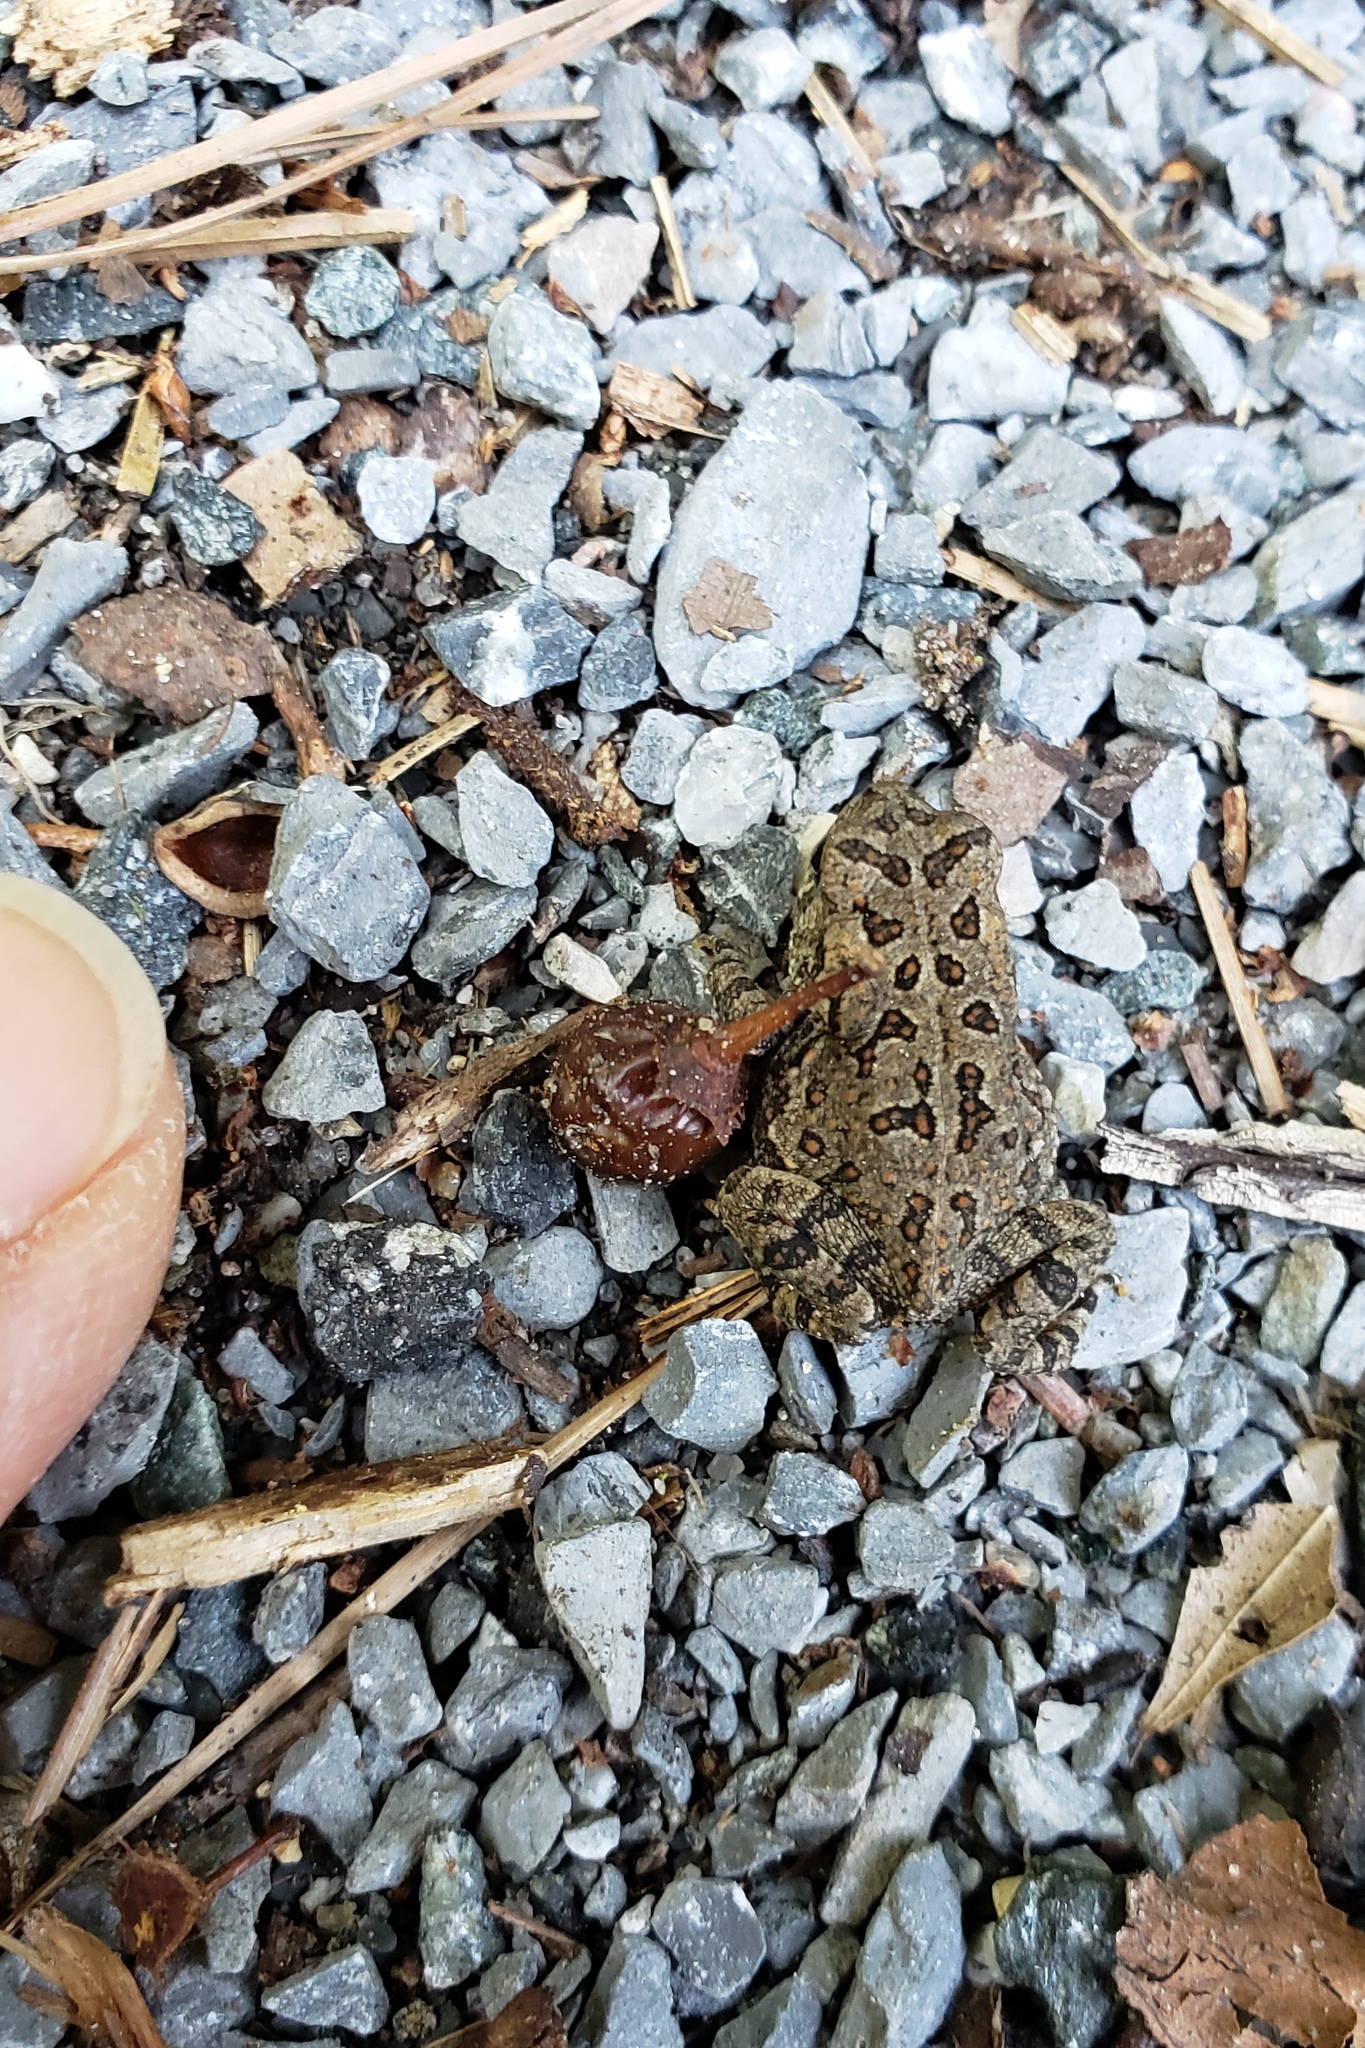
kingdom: Animalia
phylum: Chordata
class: Amphibia
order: Anura
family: Bufonidae
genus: Anaxyrus
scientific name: Anaxyrus fowleri
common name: Fowler's toad
